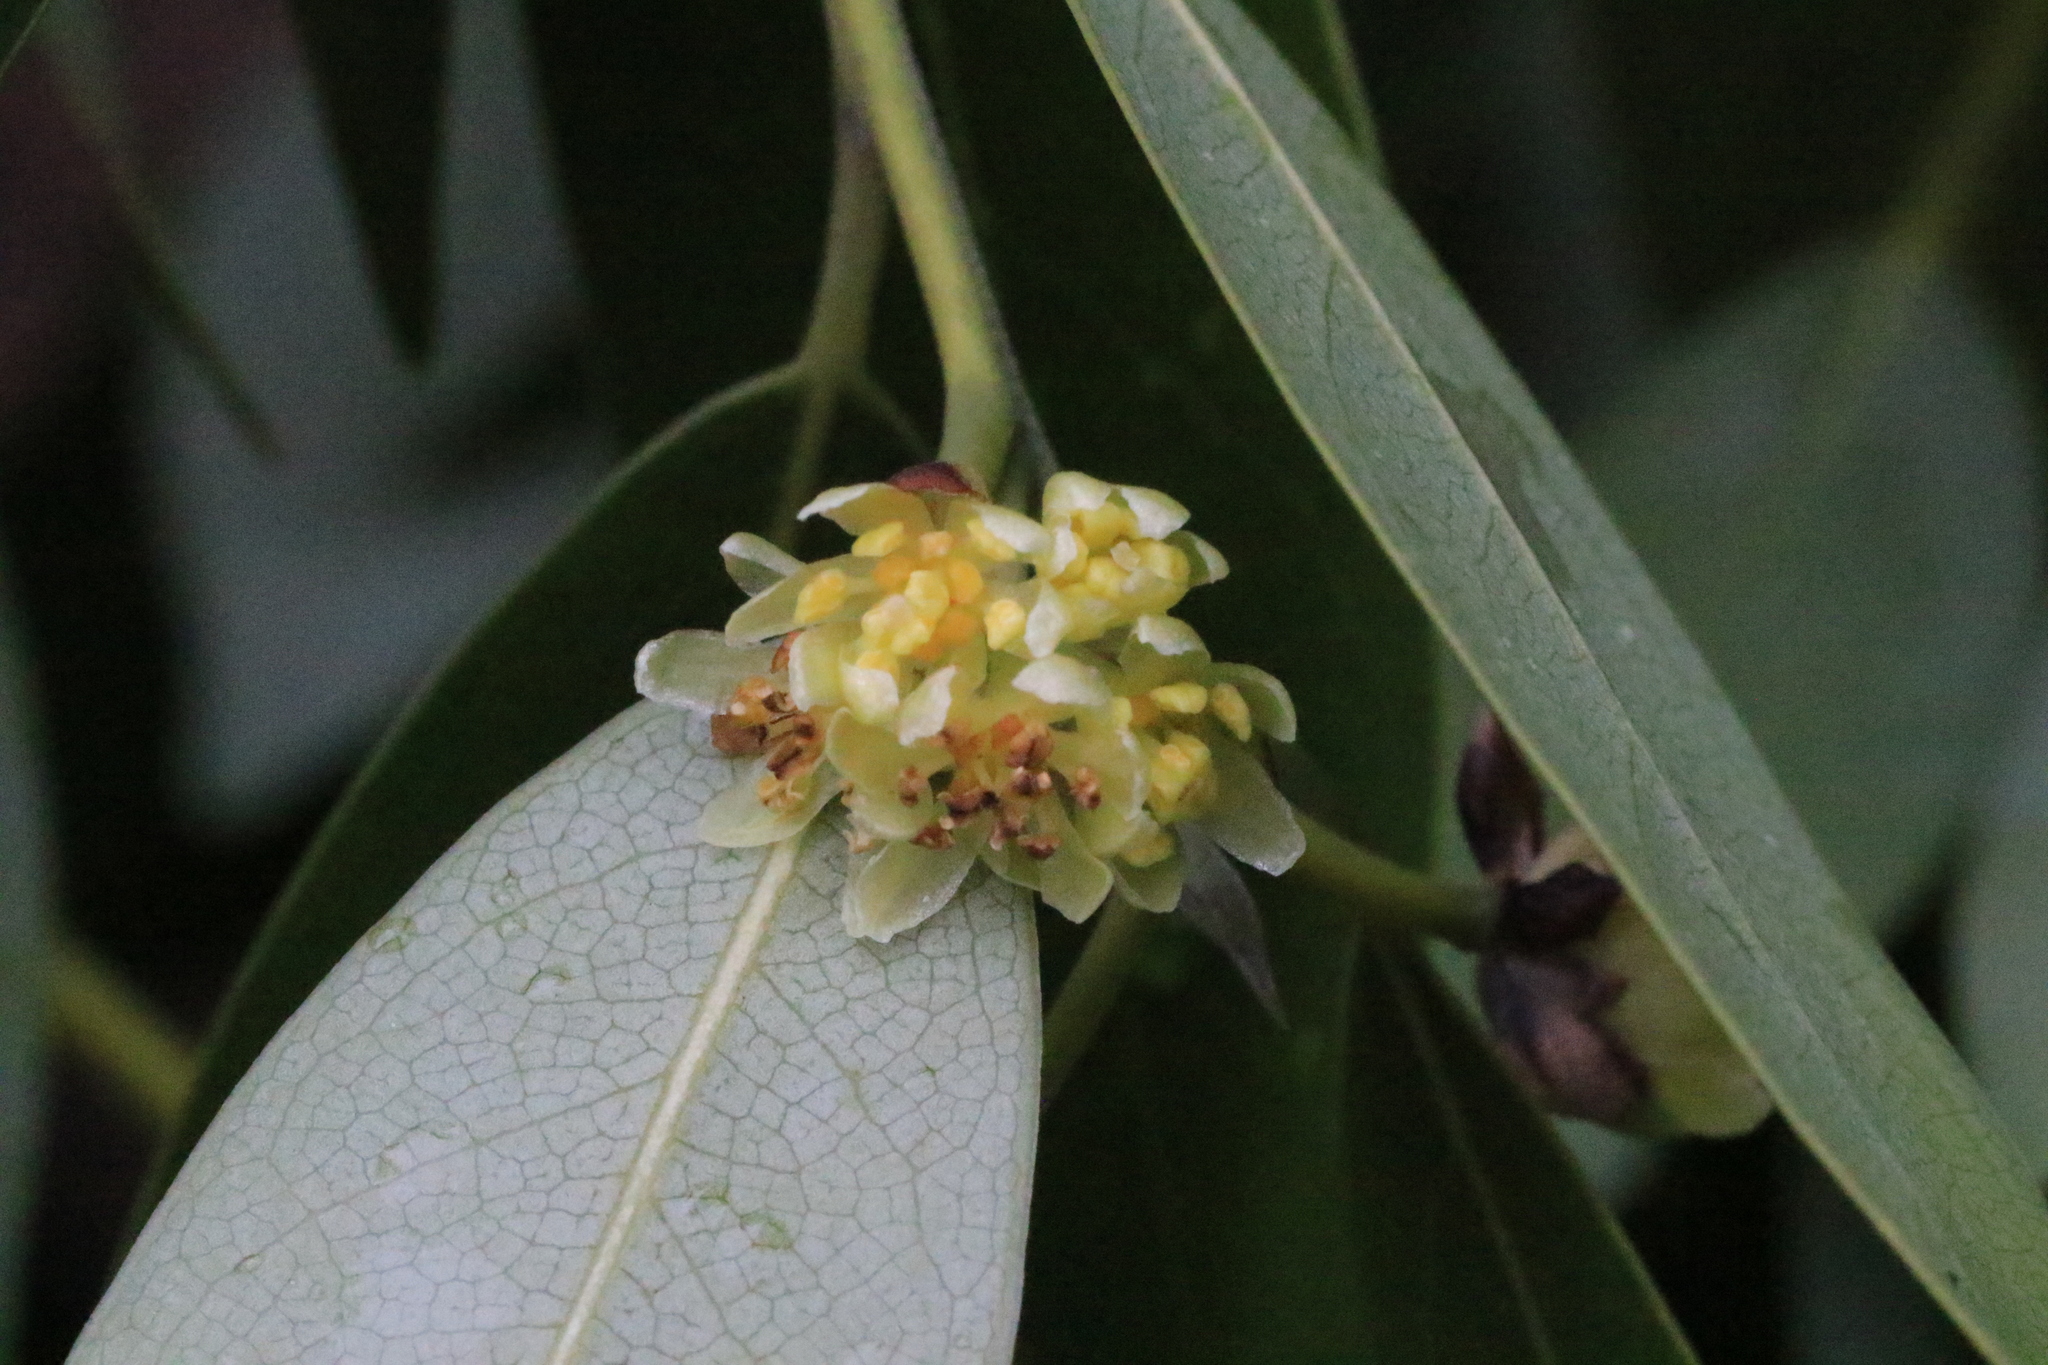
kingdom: Plantae
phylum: Tracheophyta
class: Magnoliopsida
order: Laurales
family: Lauraceae
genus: Umbellularia
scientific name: Umbellularia californica
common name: California bay
